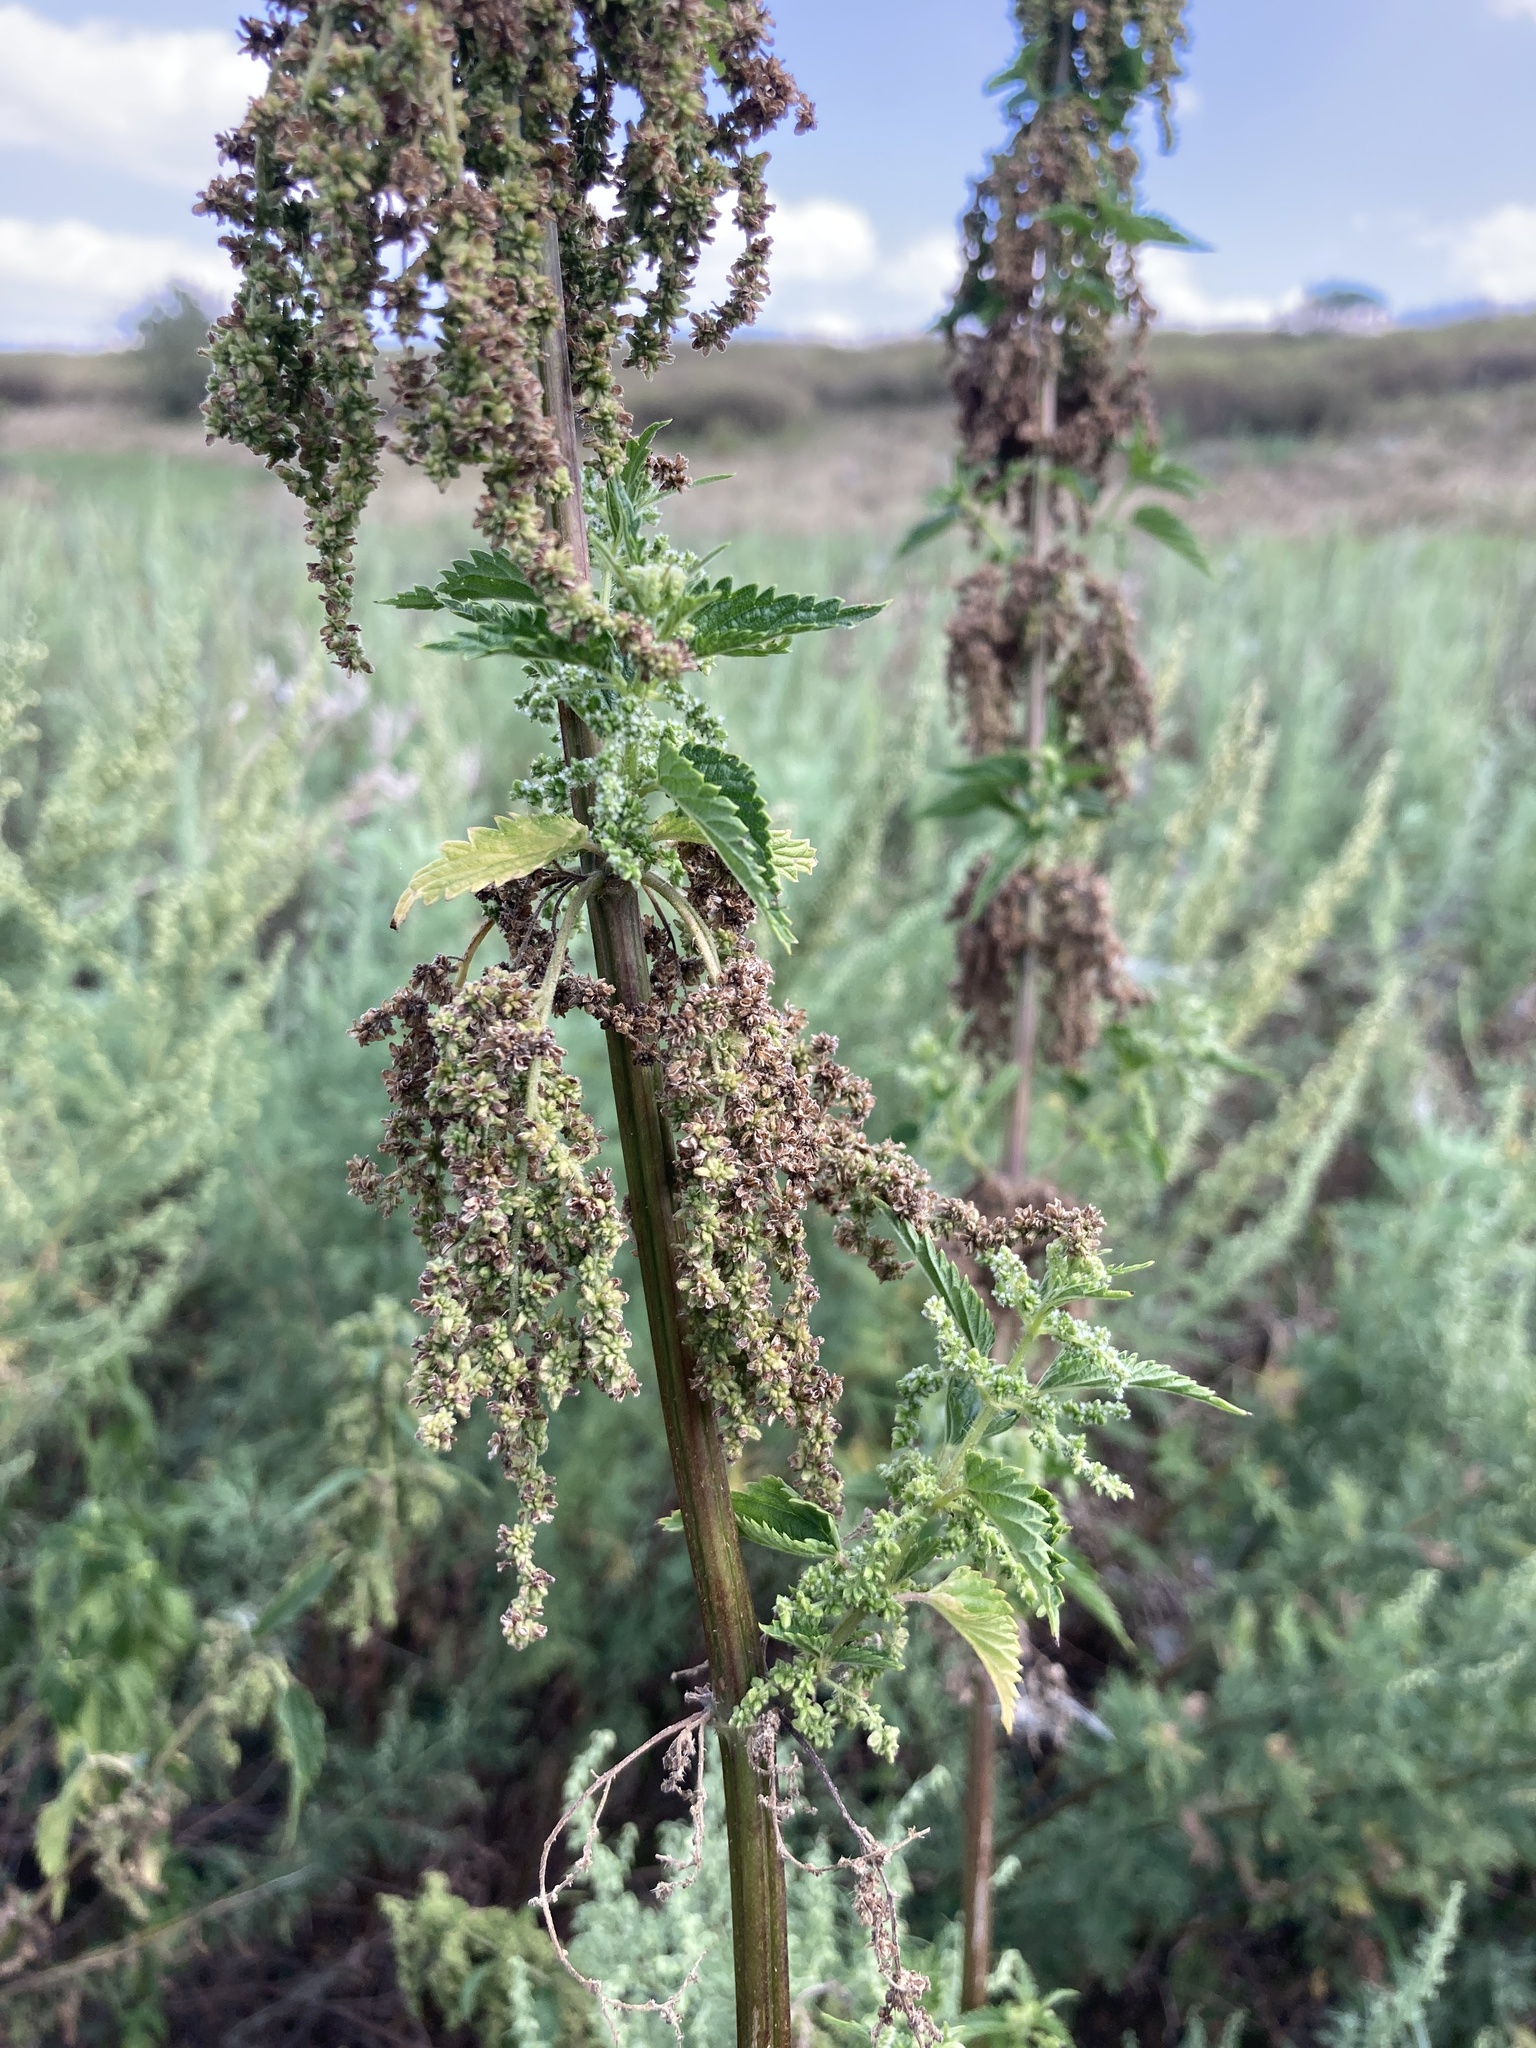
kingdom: Plantae
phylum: Tracheophyta
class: Magnoliopsida
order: Rosales
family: Urticaceae
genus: Urtica
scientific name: Urtica dioica
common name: Common nettle
